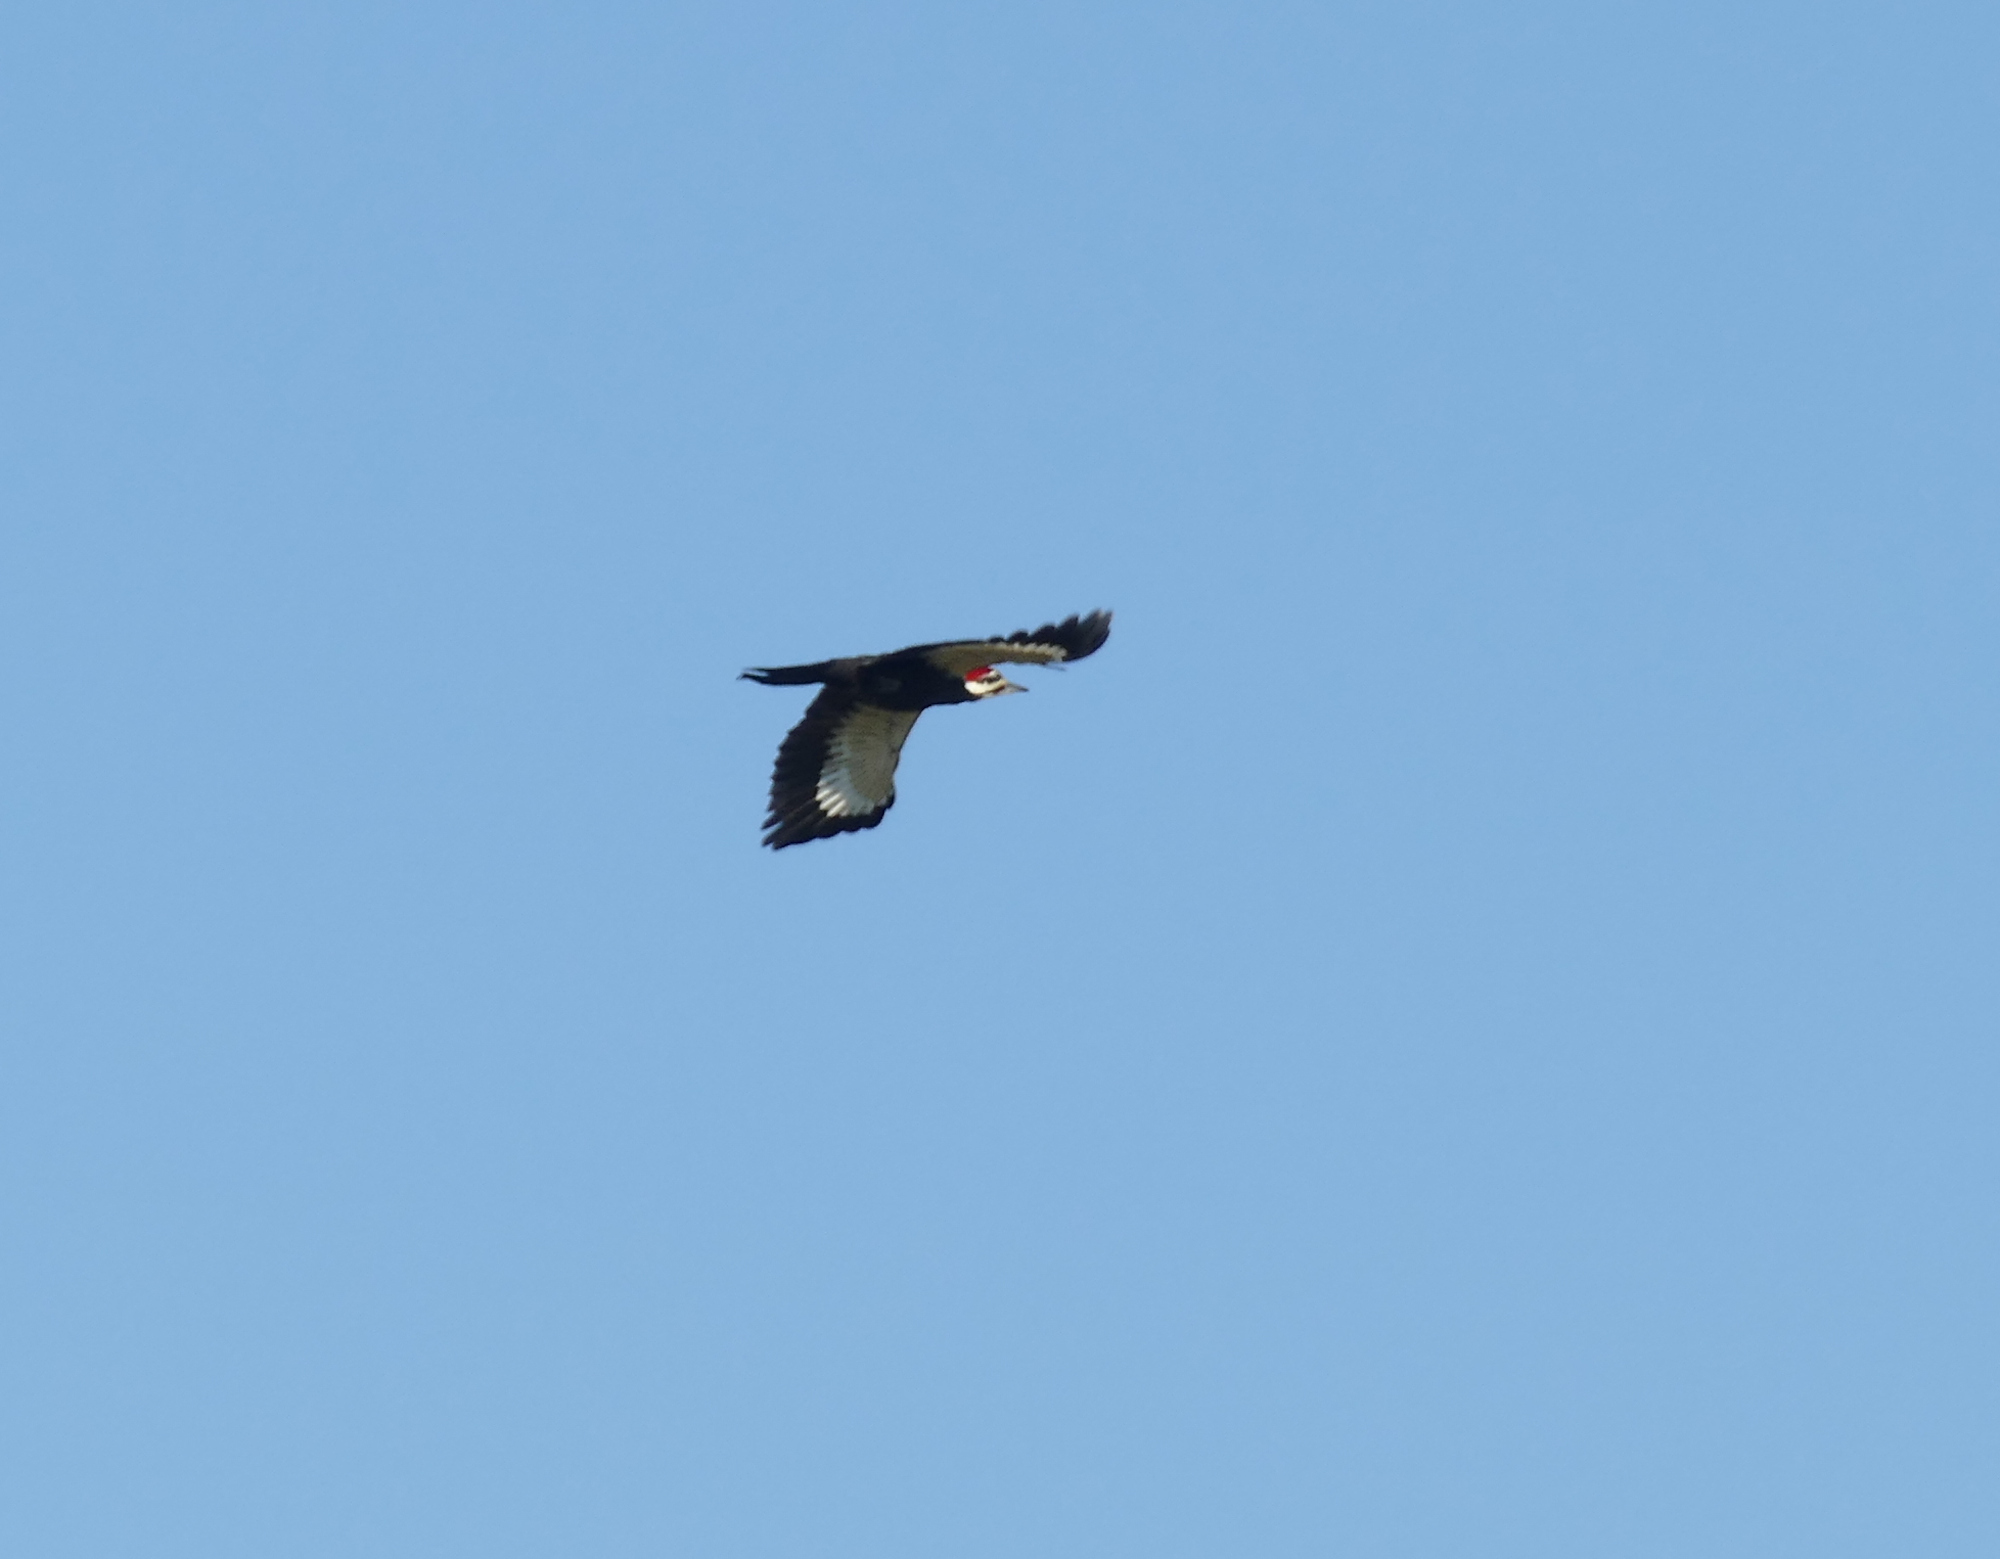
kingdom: Animalia
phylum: Chordata
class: Aves
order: Piciformes
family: Picidae
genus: Dryocopus
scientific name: Dryocopus pileatus
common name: Pileated woodpecker
